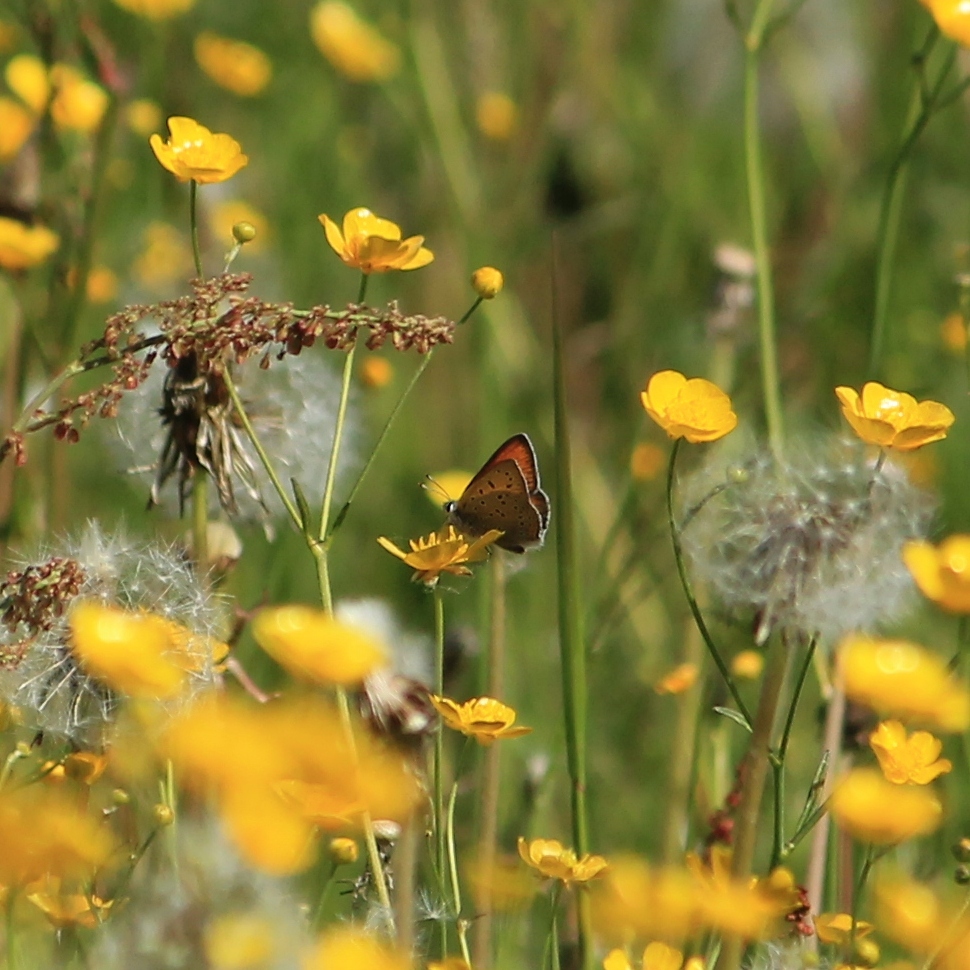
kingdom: Animalia
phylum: Arthropoda
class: Insecta
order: Lepidoptera
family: Lycaenidae
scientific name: Lycaenidae
